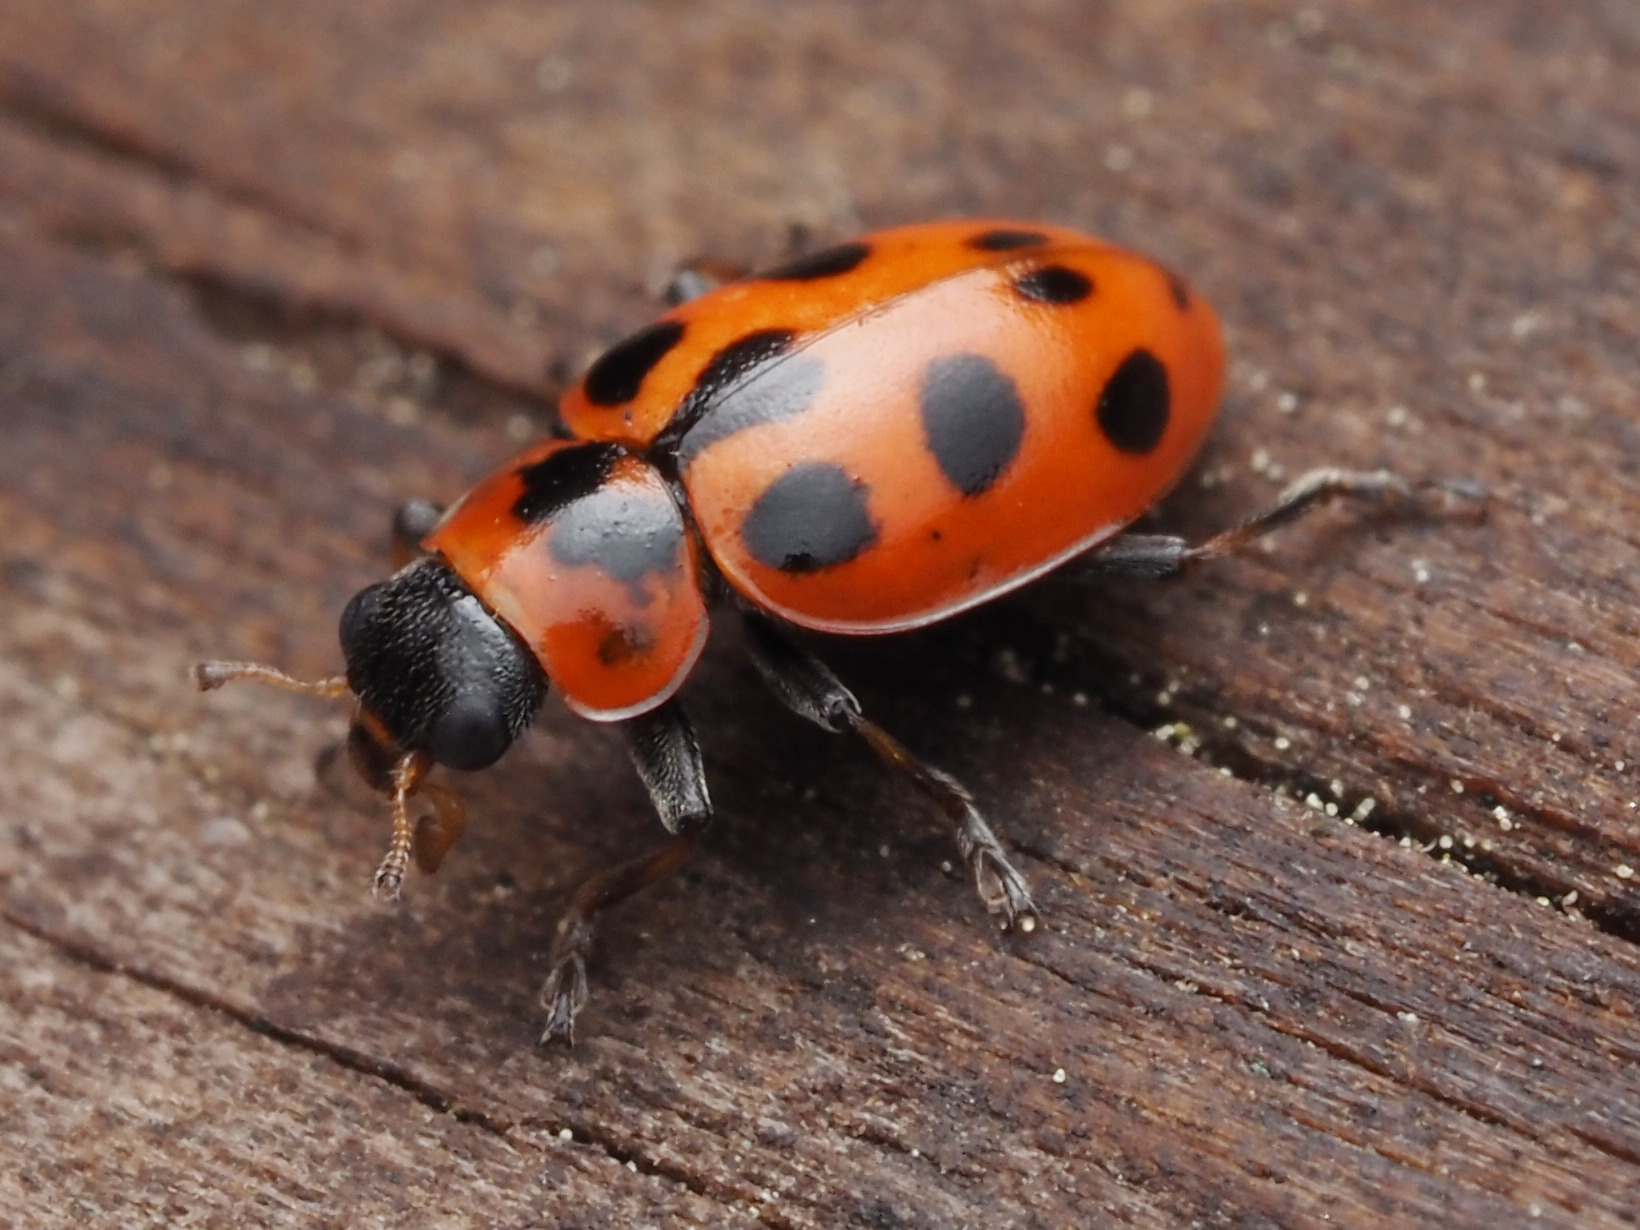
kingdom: Animalia
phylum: Arthropoda
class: Insecta
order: Coleoptera
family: Coccinellidae
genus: Naemia
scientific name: Naemia seriata
